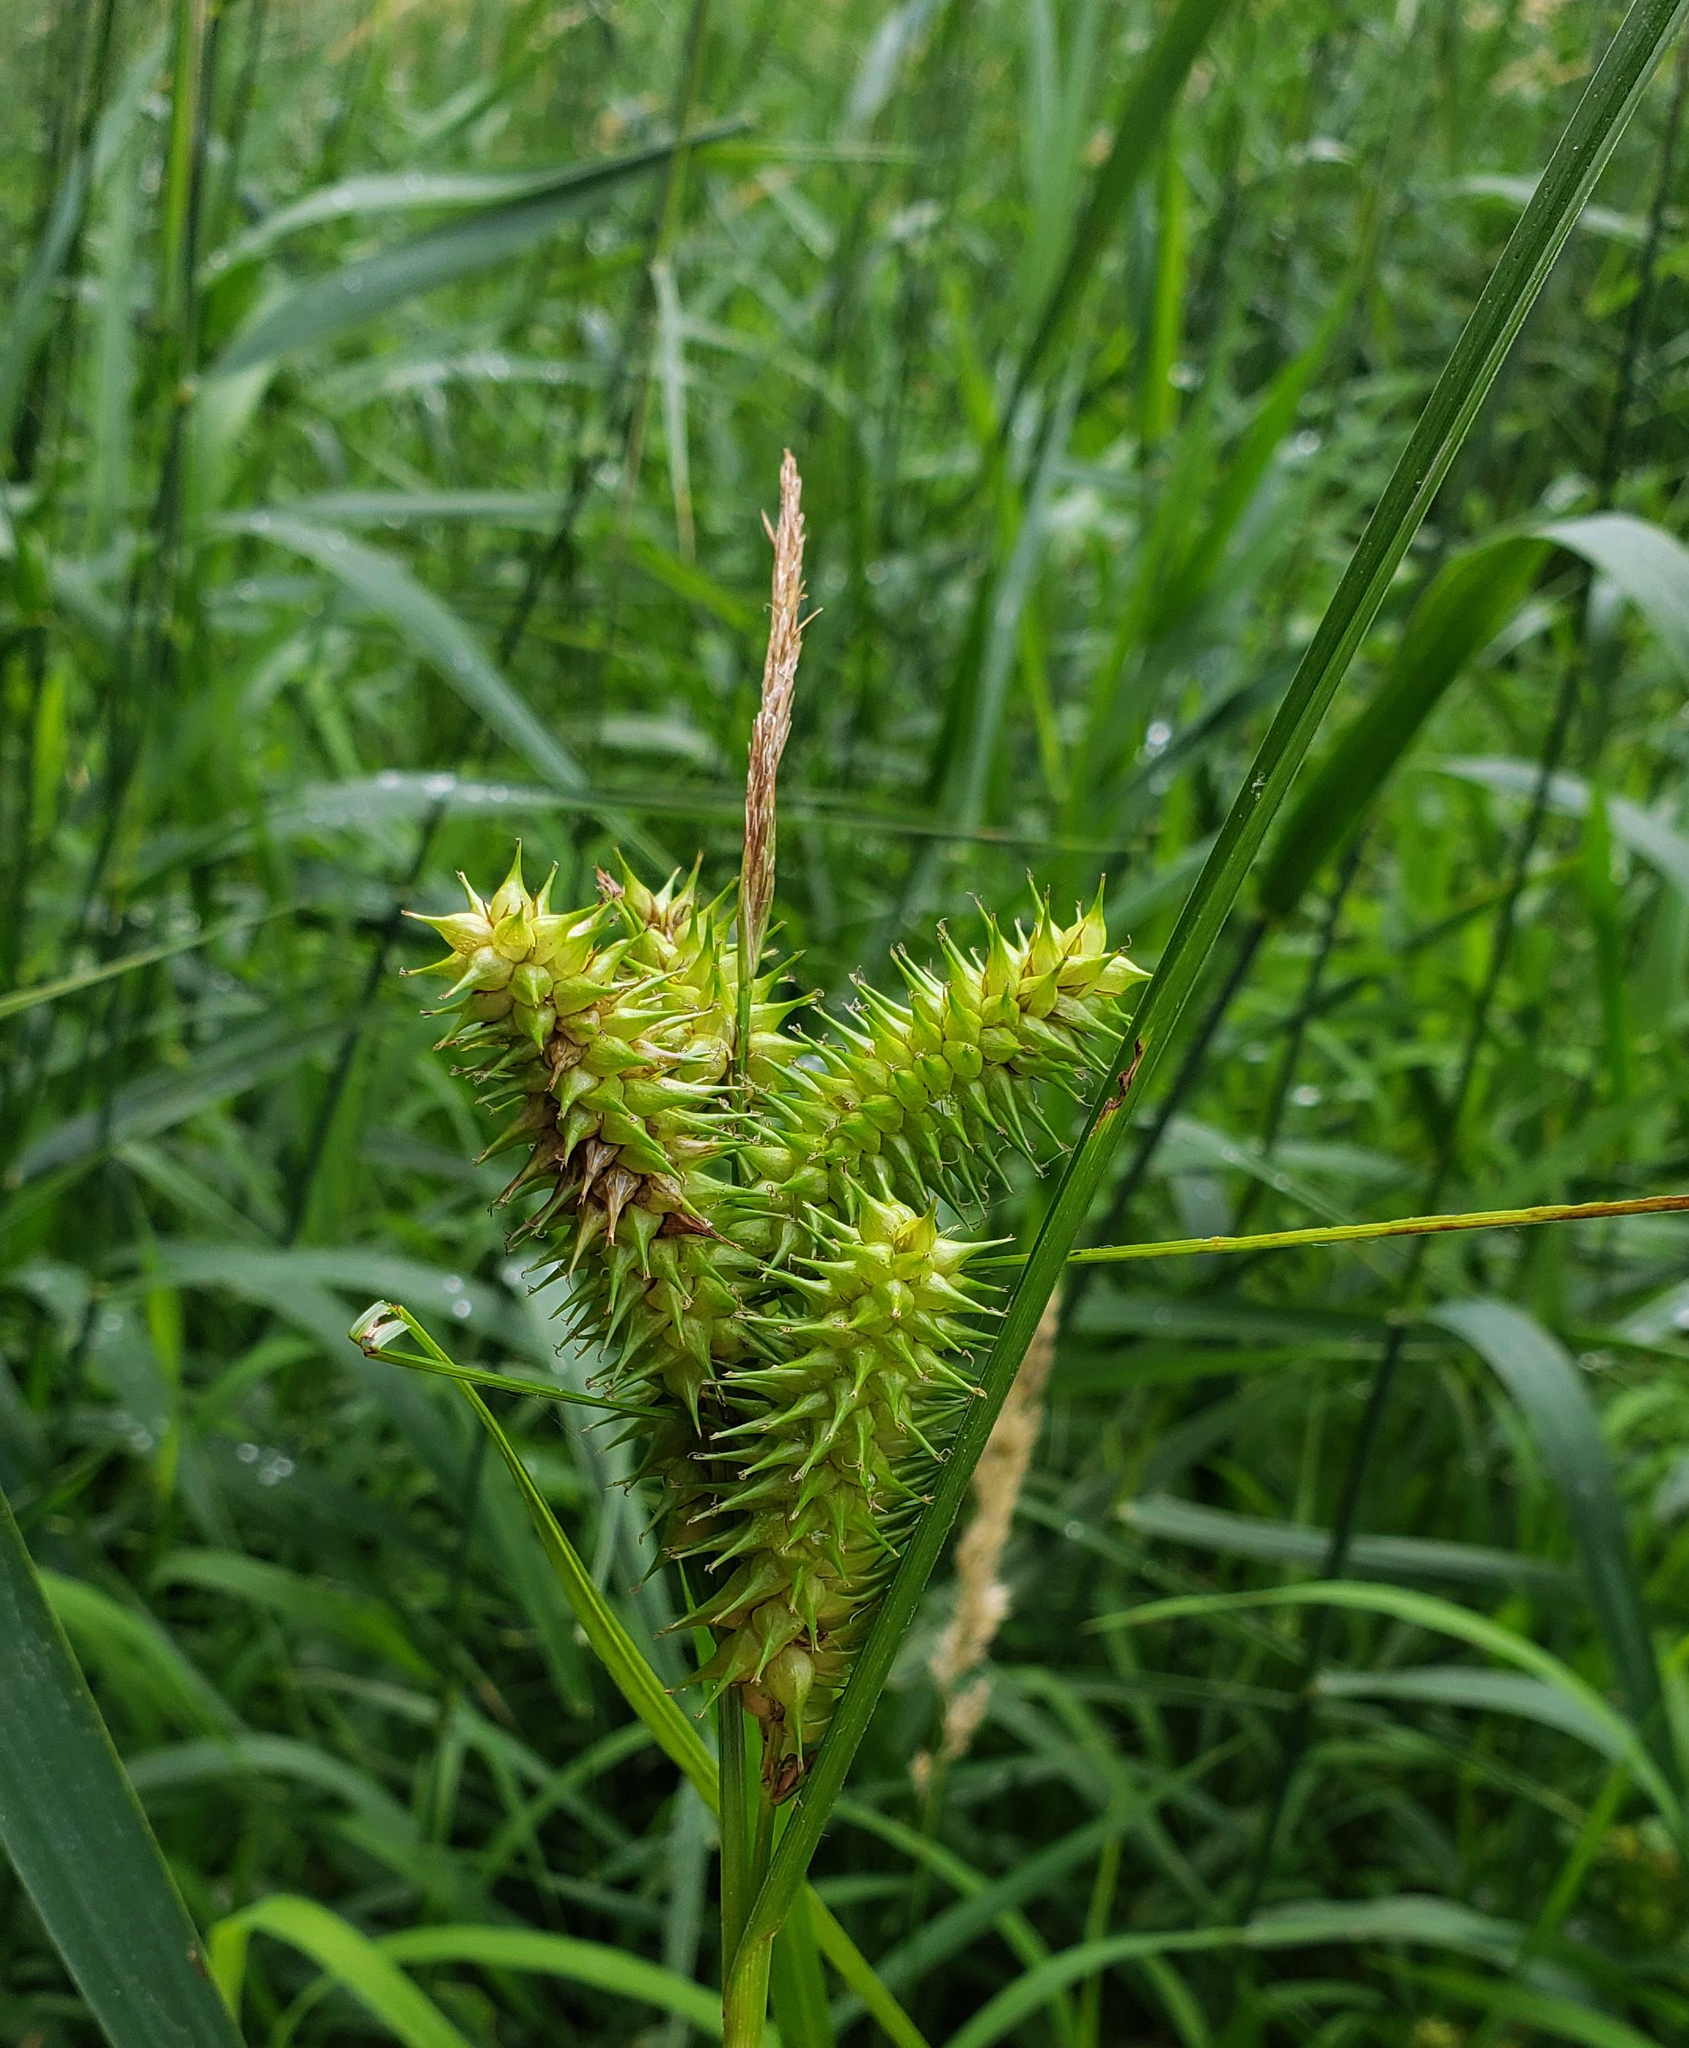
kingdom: Plantae
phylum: Tracheophyta
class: Liliopsida
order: Poales
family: Cyperaceae
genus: Carex
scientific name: Carex retrorsa
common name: Knot-sheath sedge
